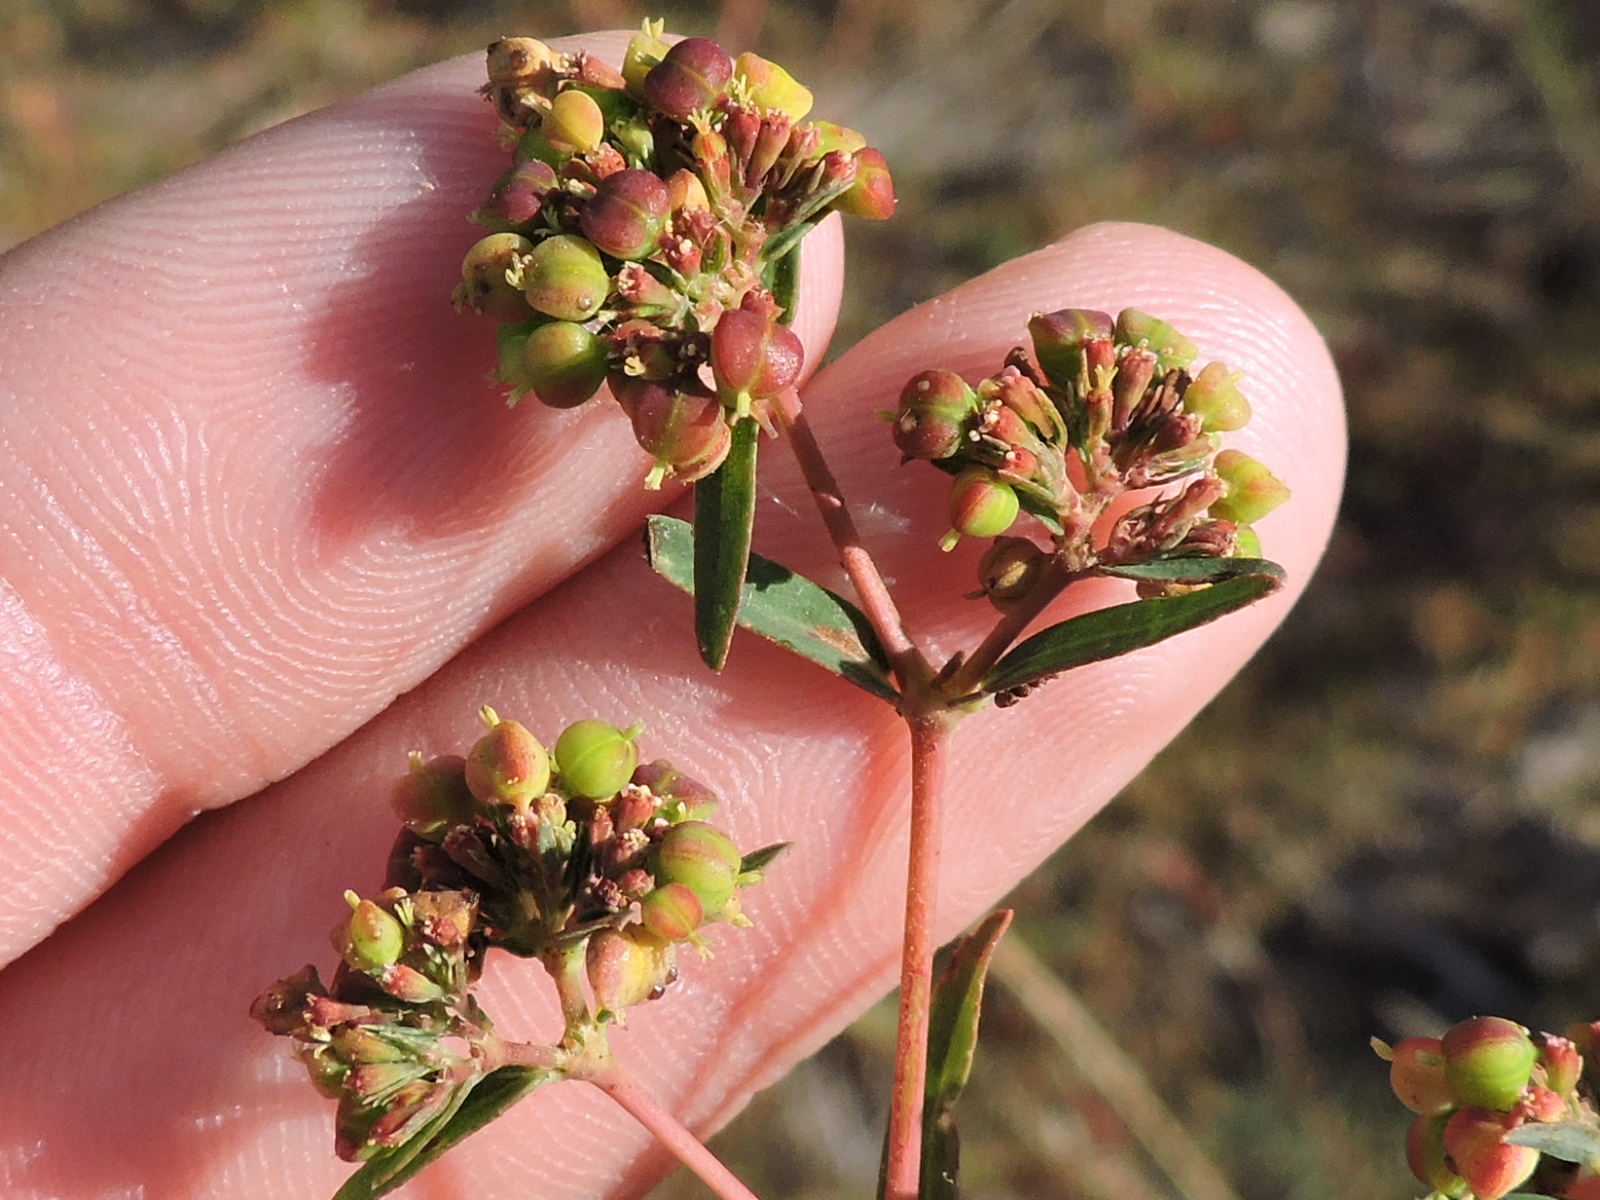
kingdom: Plantae
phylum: Tracheophyta
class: Magnoliopsida
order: Malpighiales
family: Euphorbiaceae
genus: Euphorbia
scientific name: Euphorbia hyssopifolia
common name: Hyssopleaf sandmat
